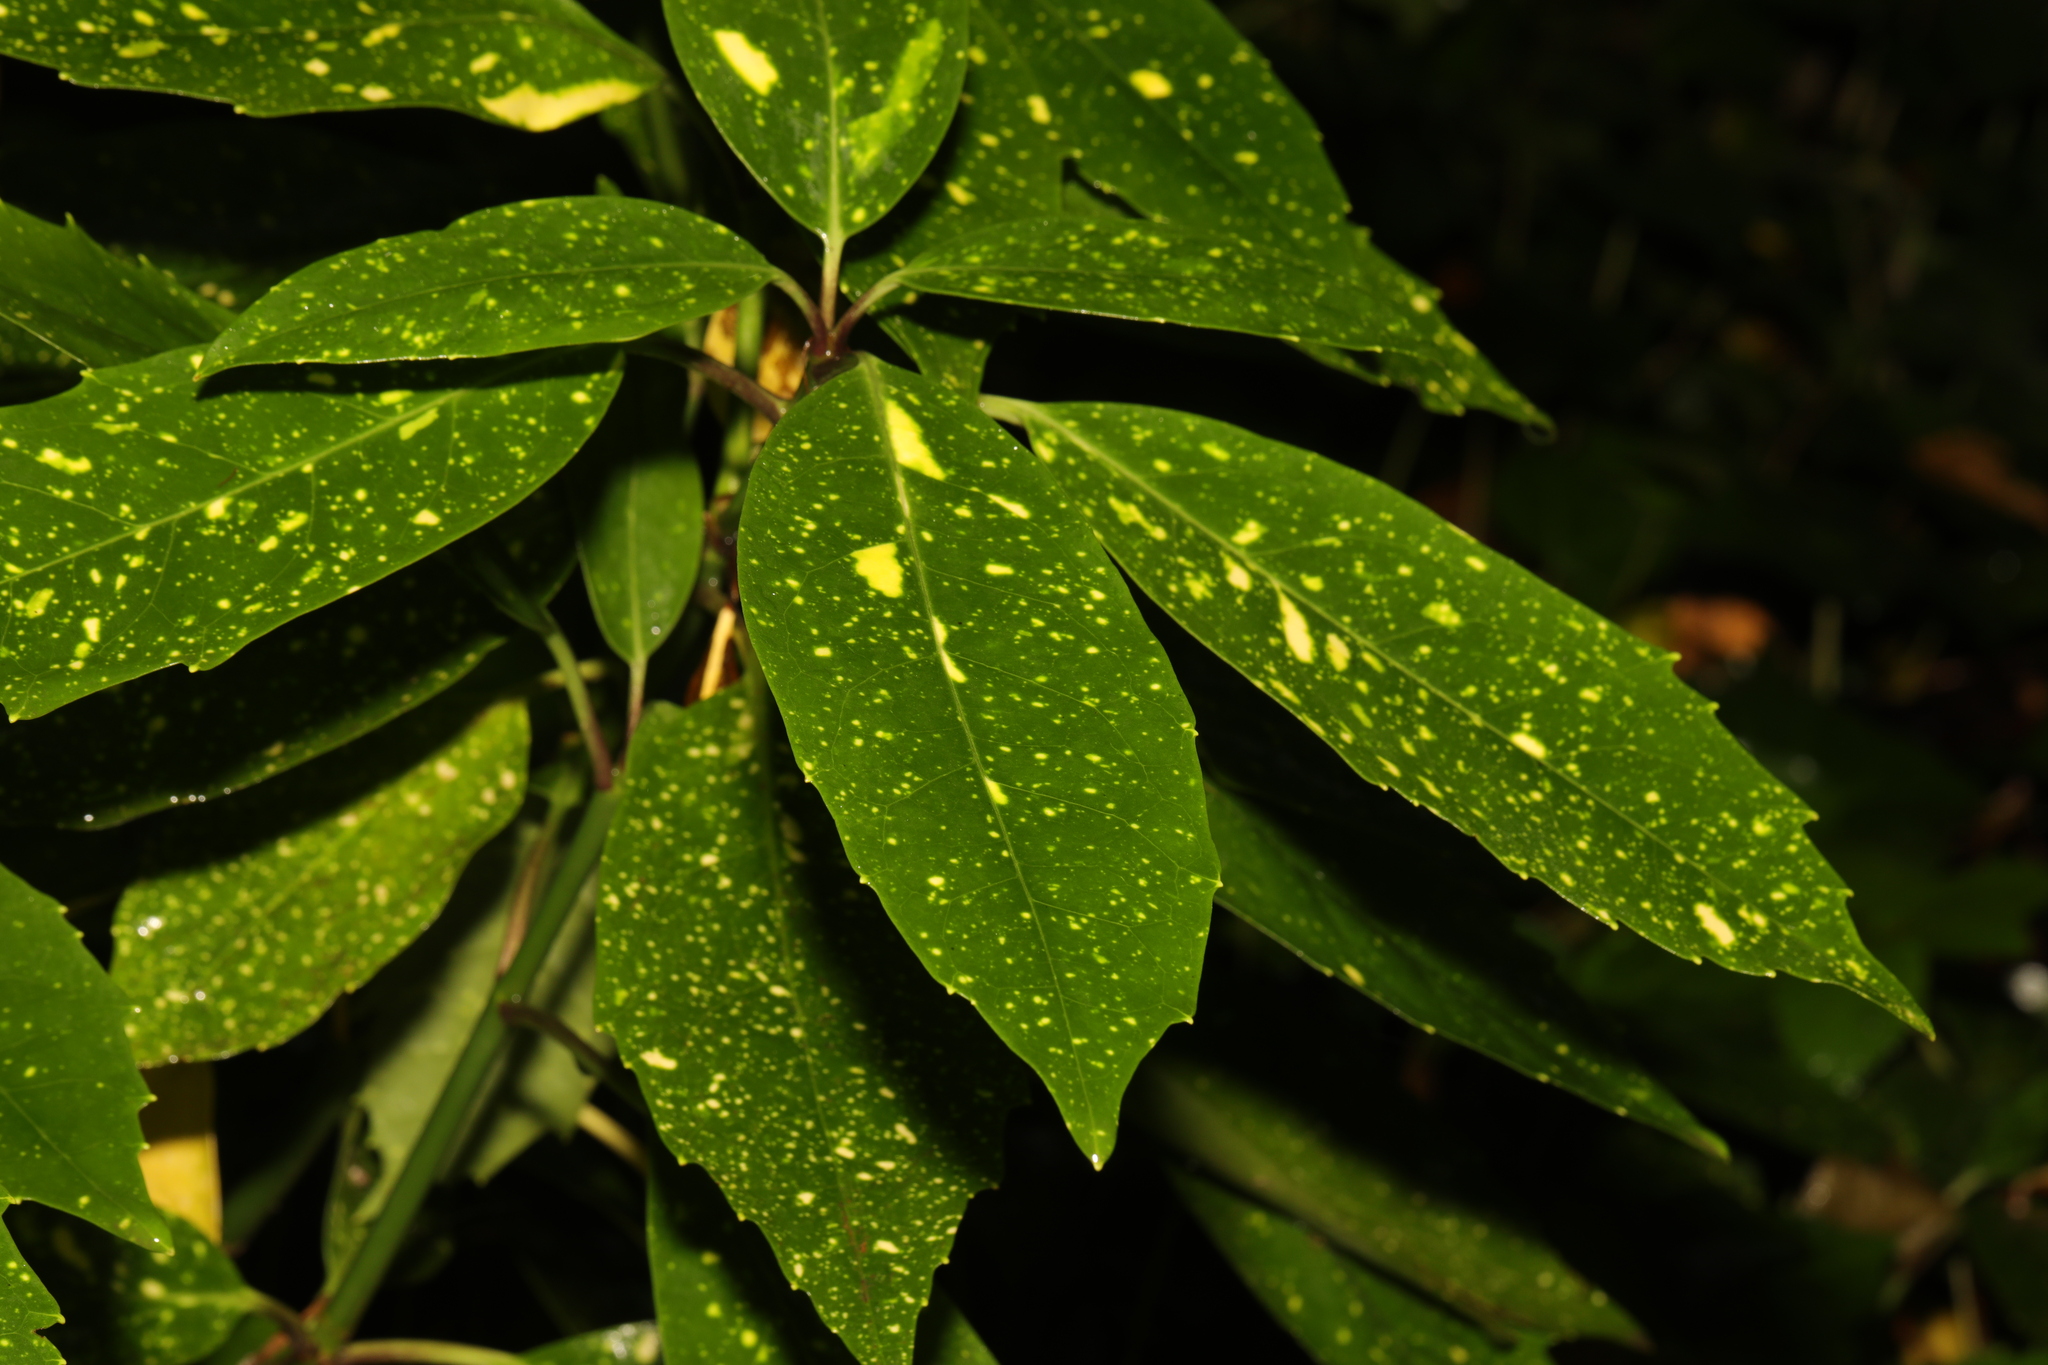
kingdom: Plantae
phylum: Tracheophyta
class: Magnoliopsida
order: Garryales
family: Garryaceae
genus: Aucuba
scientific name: Aucuba japonica
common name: Spotted-laurel
